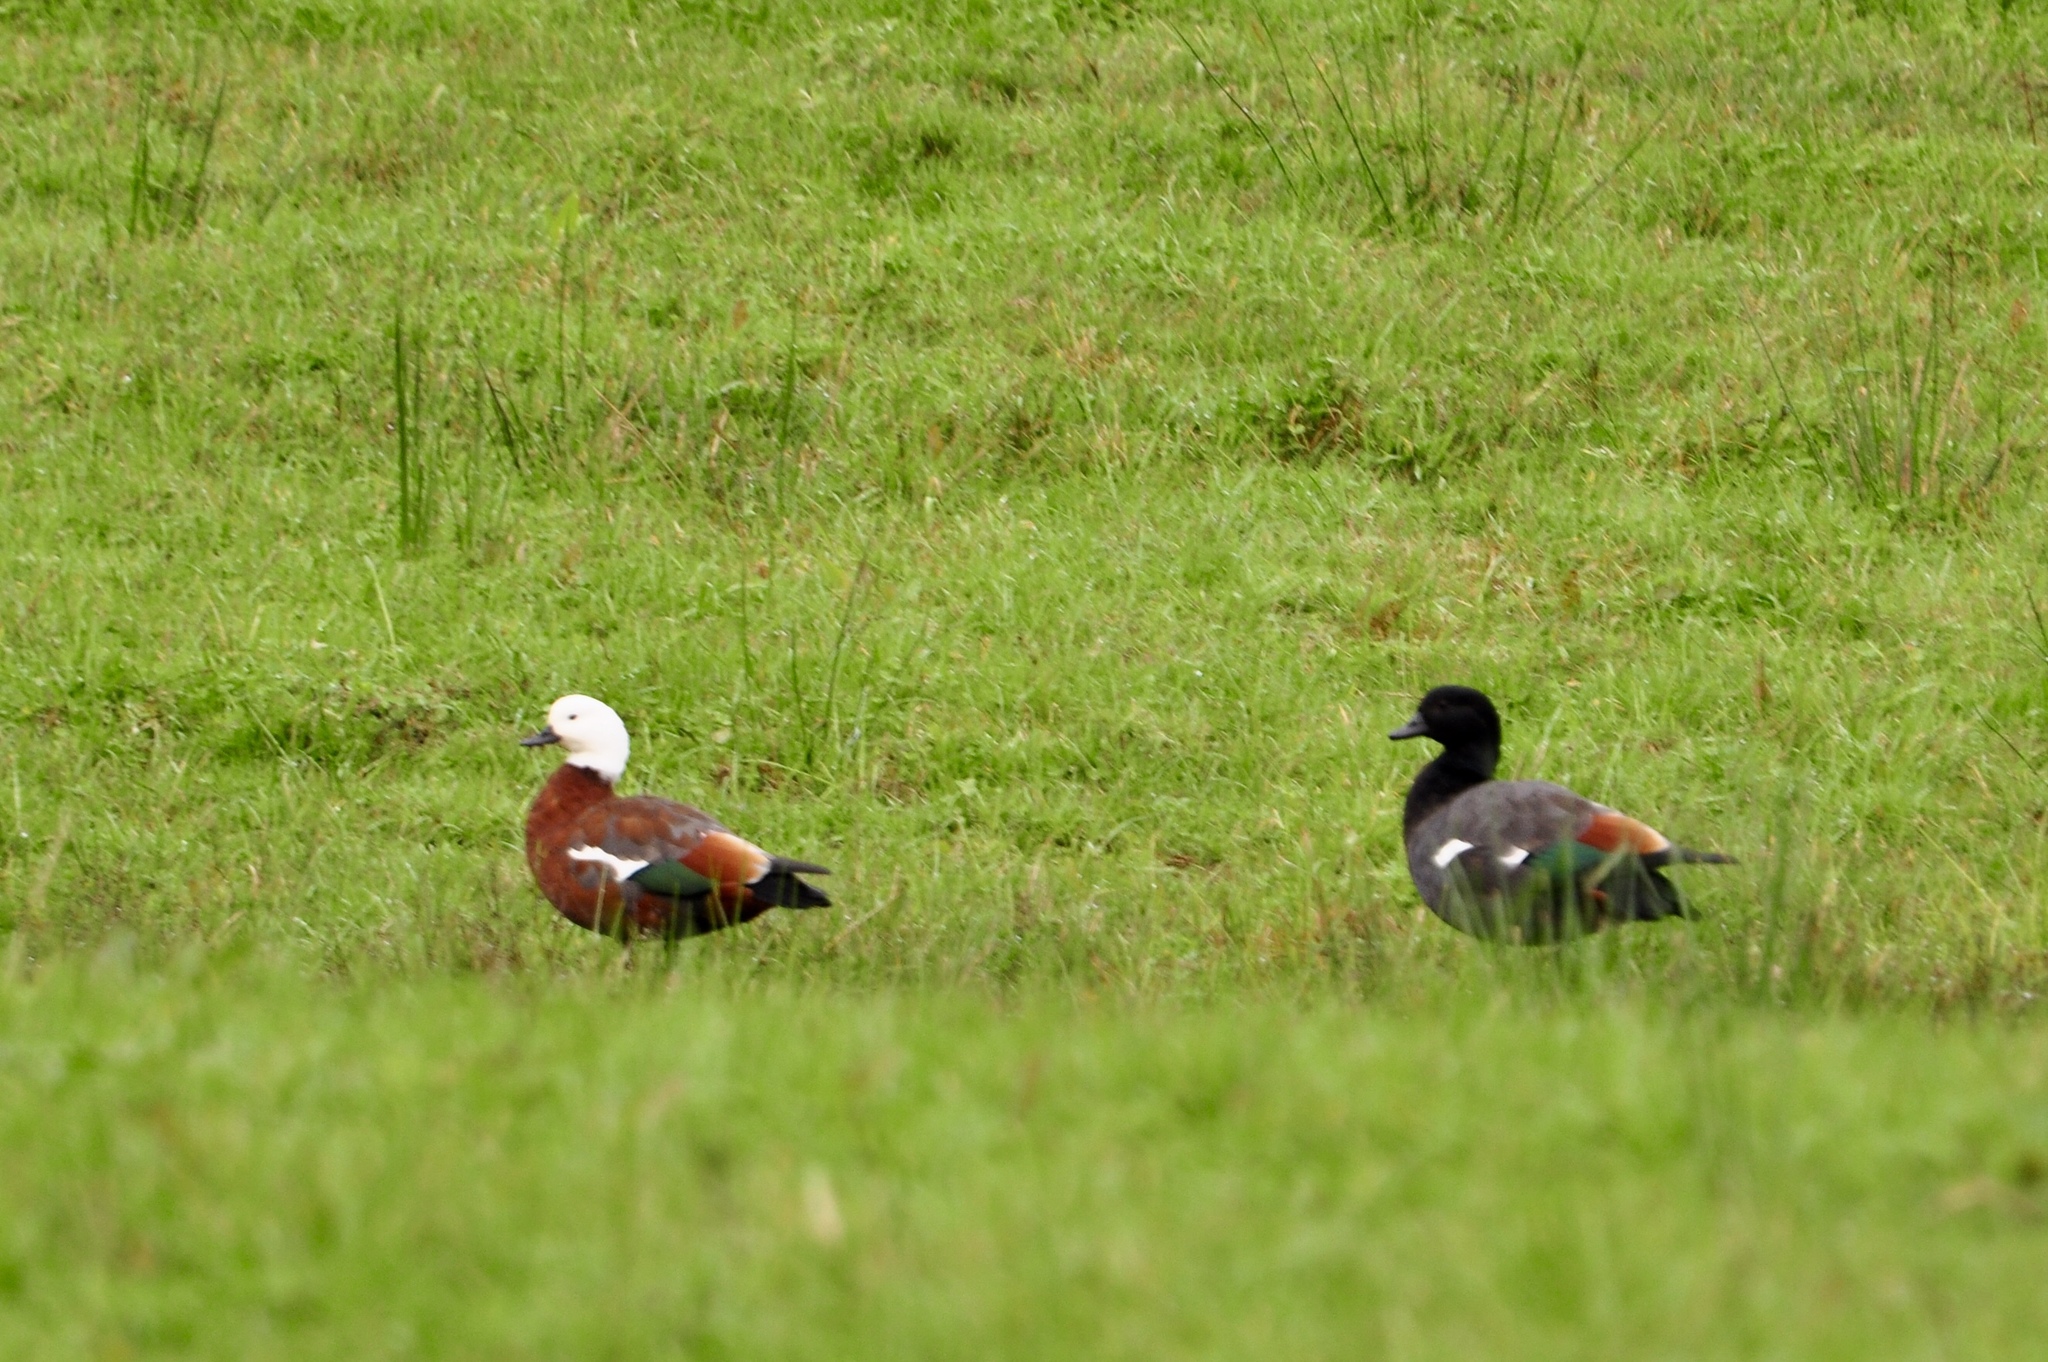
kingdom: Animalia
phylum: Chordata
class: Aves
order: Anseriformes
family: Anatidae
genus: Tadorna
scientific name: Tadorna variegata
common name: Paradise shelduck
